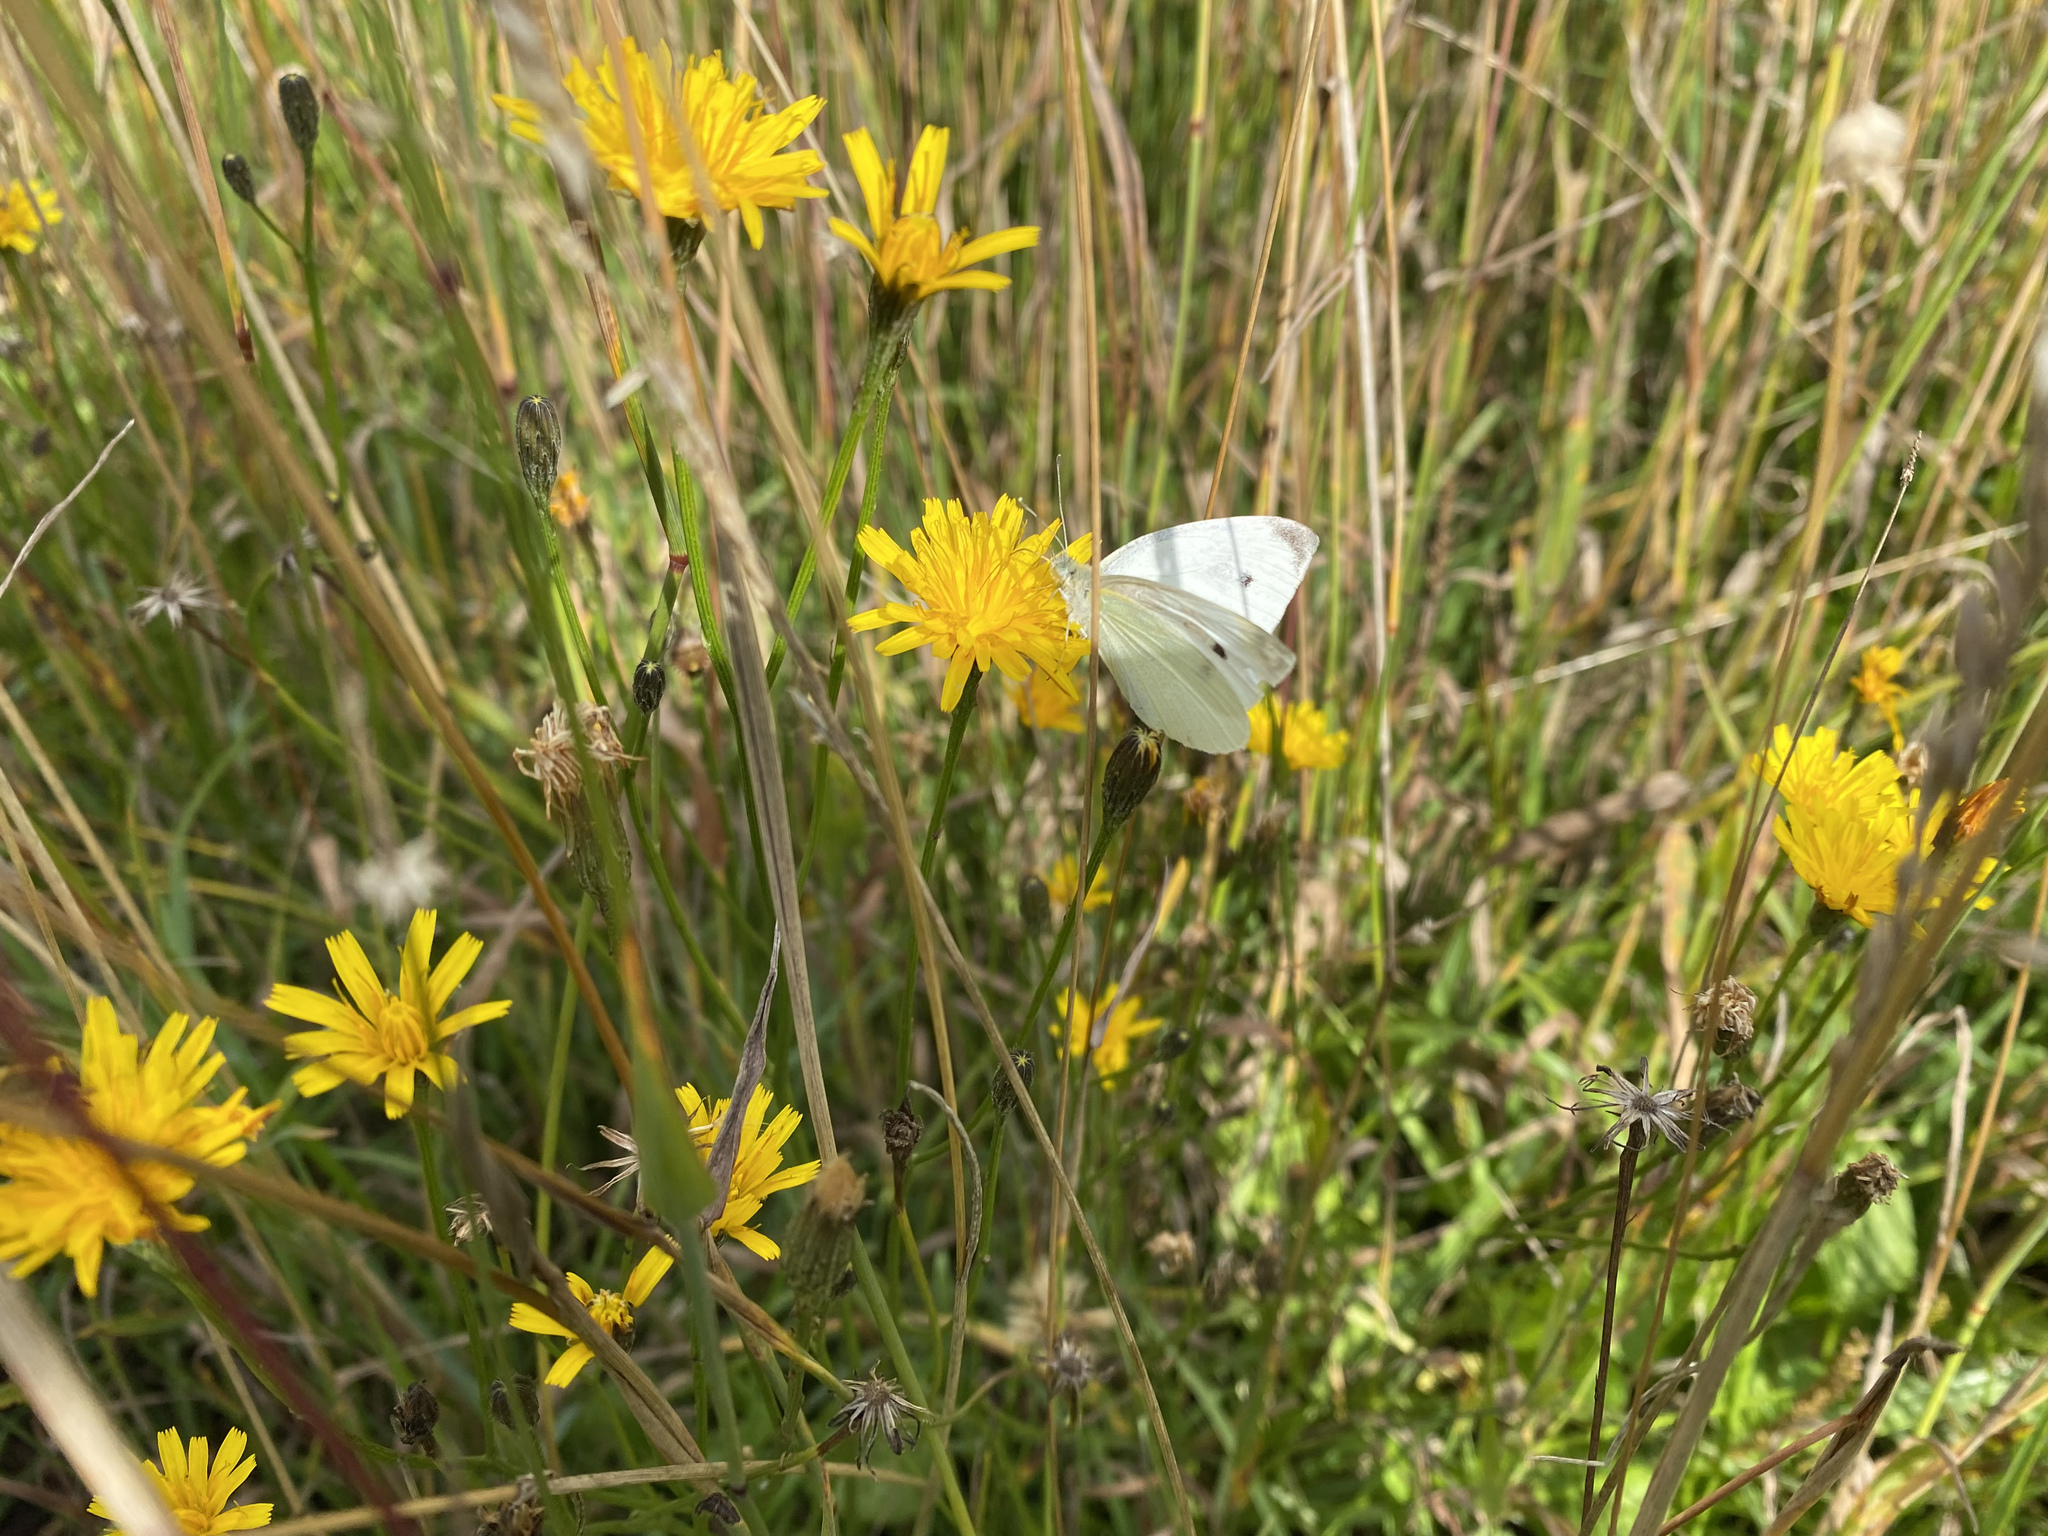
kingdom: Animalia
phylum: Arthropoda
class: Insecta
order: Lepidoptera
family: Pieridae
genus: Pieris
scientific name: Pieris rapae
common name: Small white
